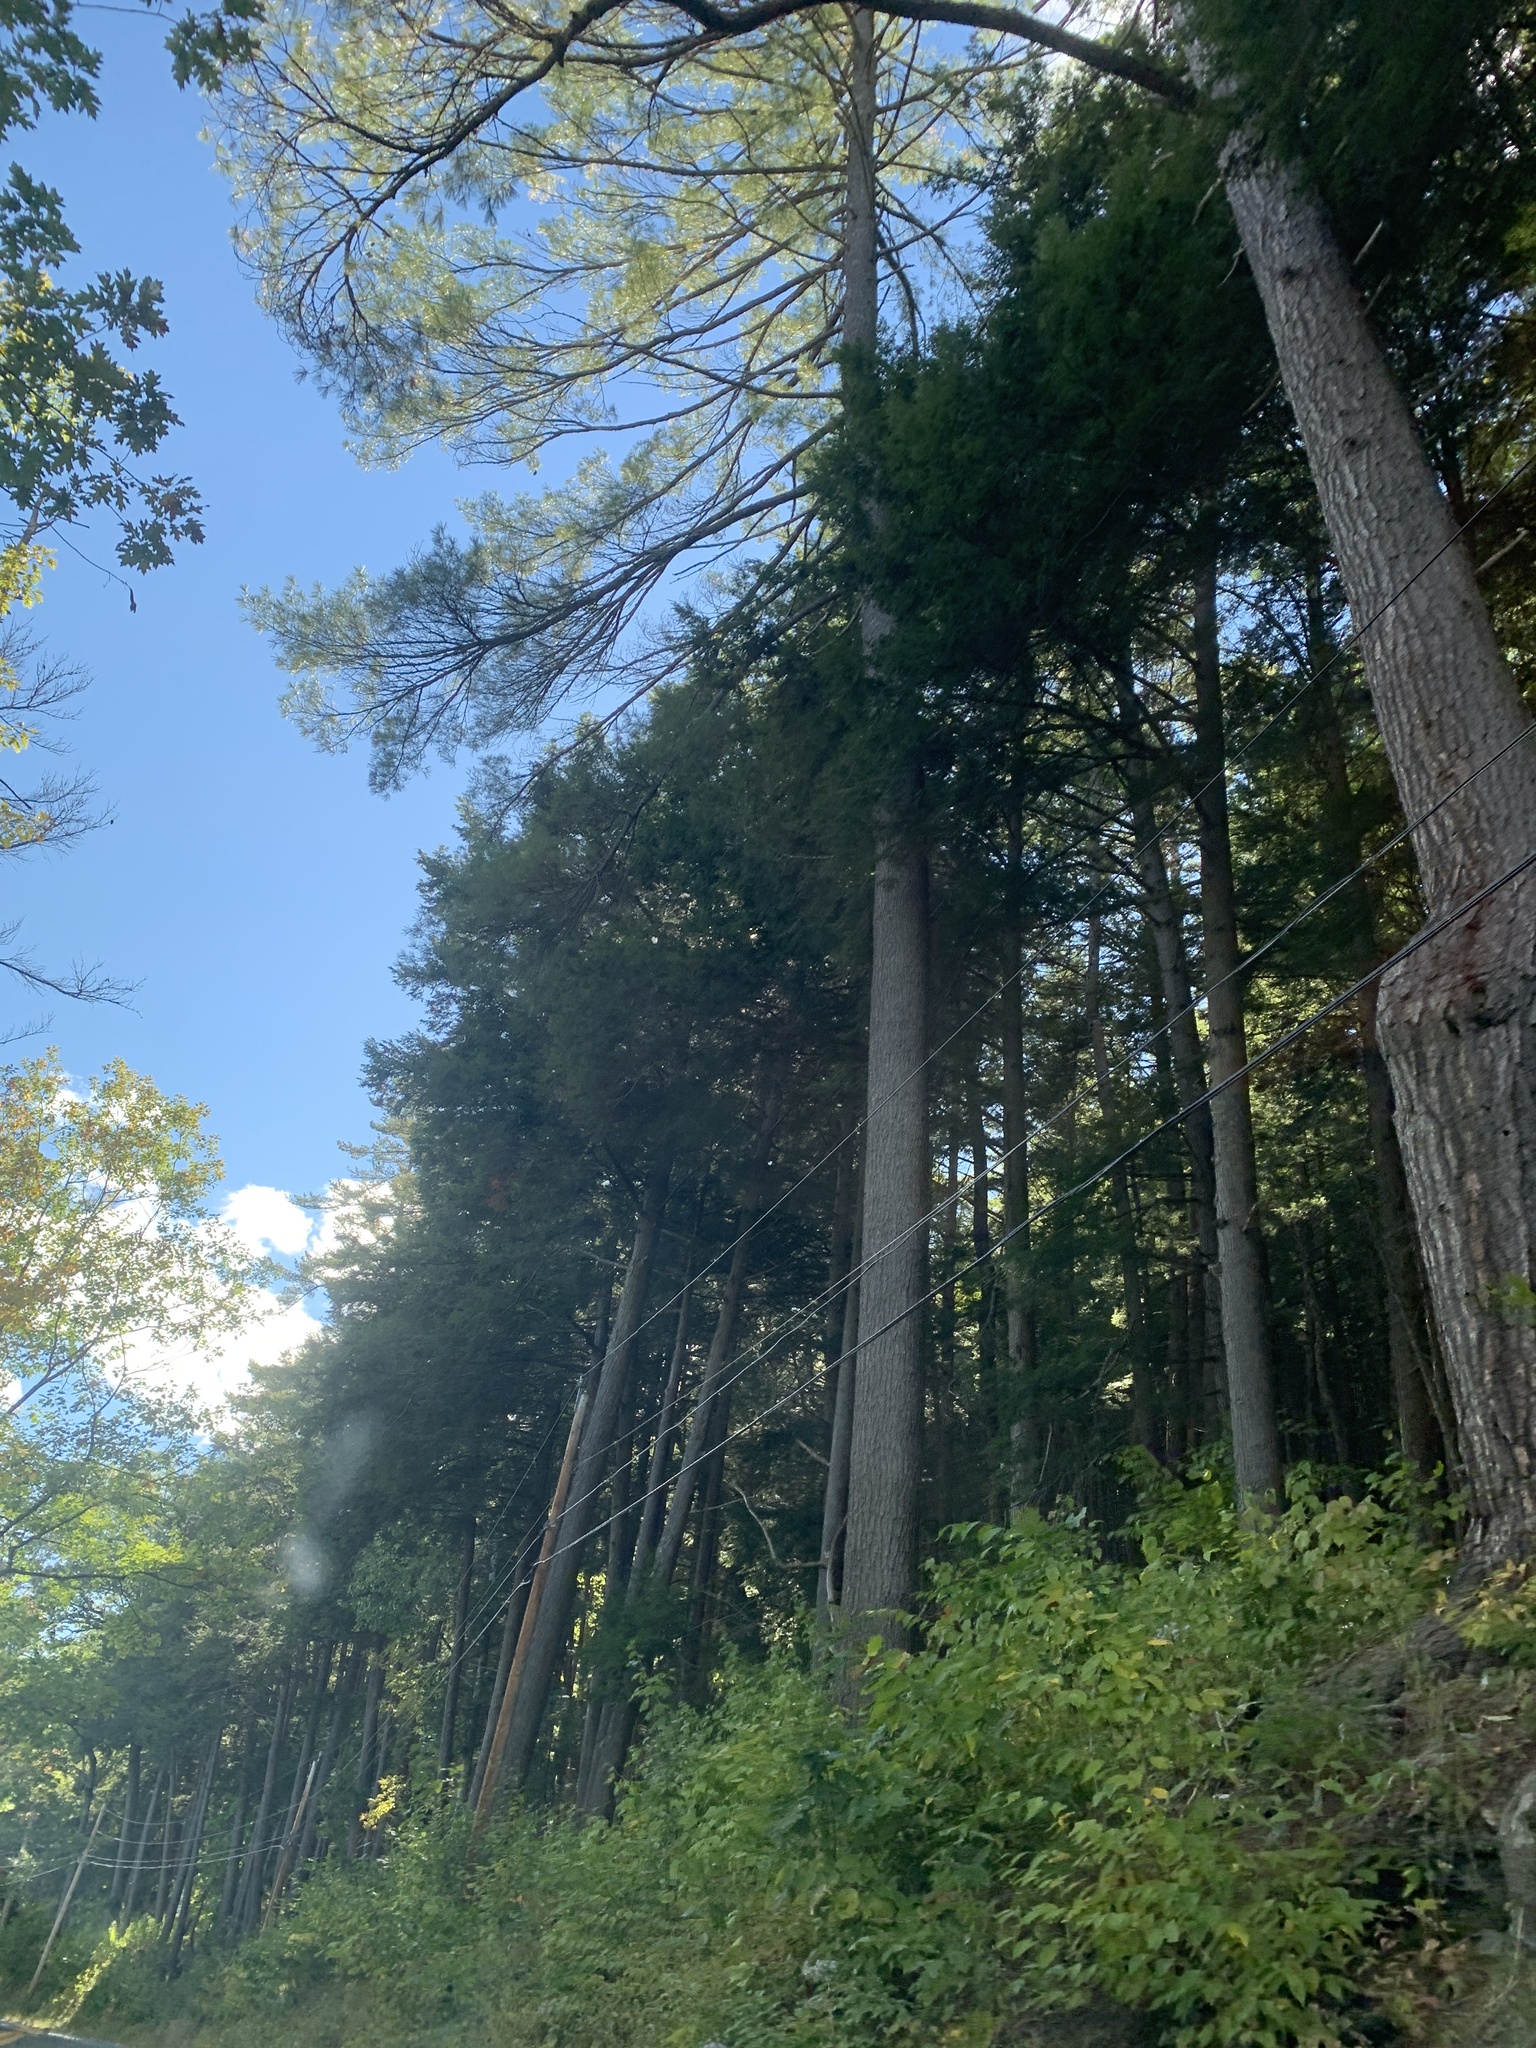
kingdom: Plantae
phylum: Tracheophyta
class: Pinopsida
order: Pinales
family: Pinaceae
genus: Tsuga
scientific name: Tsuga canadensis
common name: Eastern hemlock
